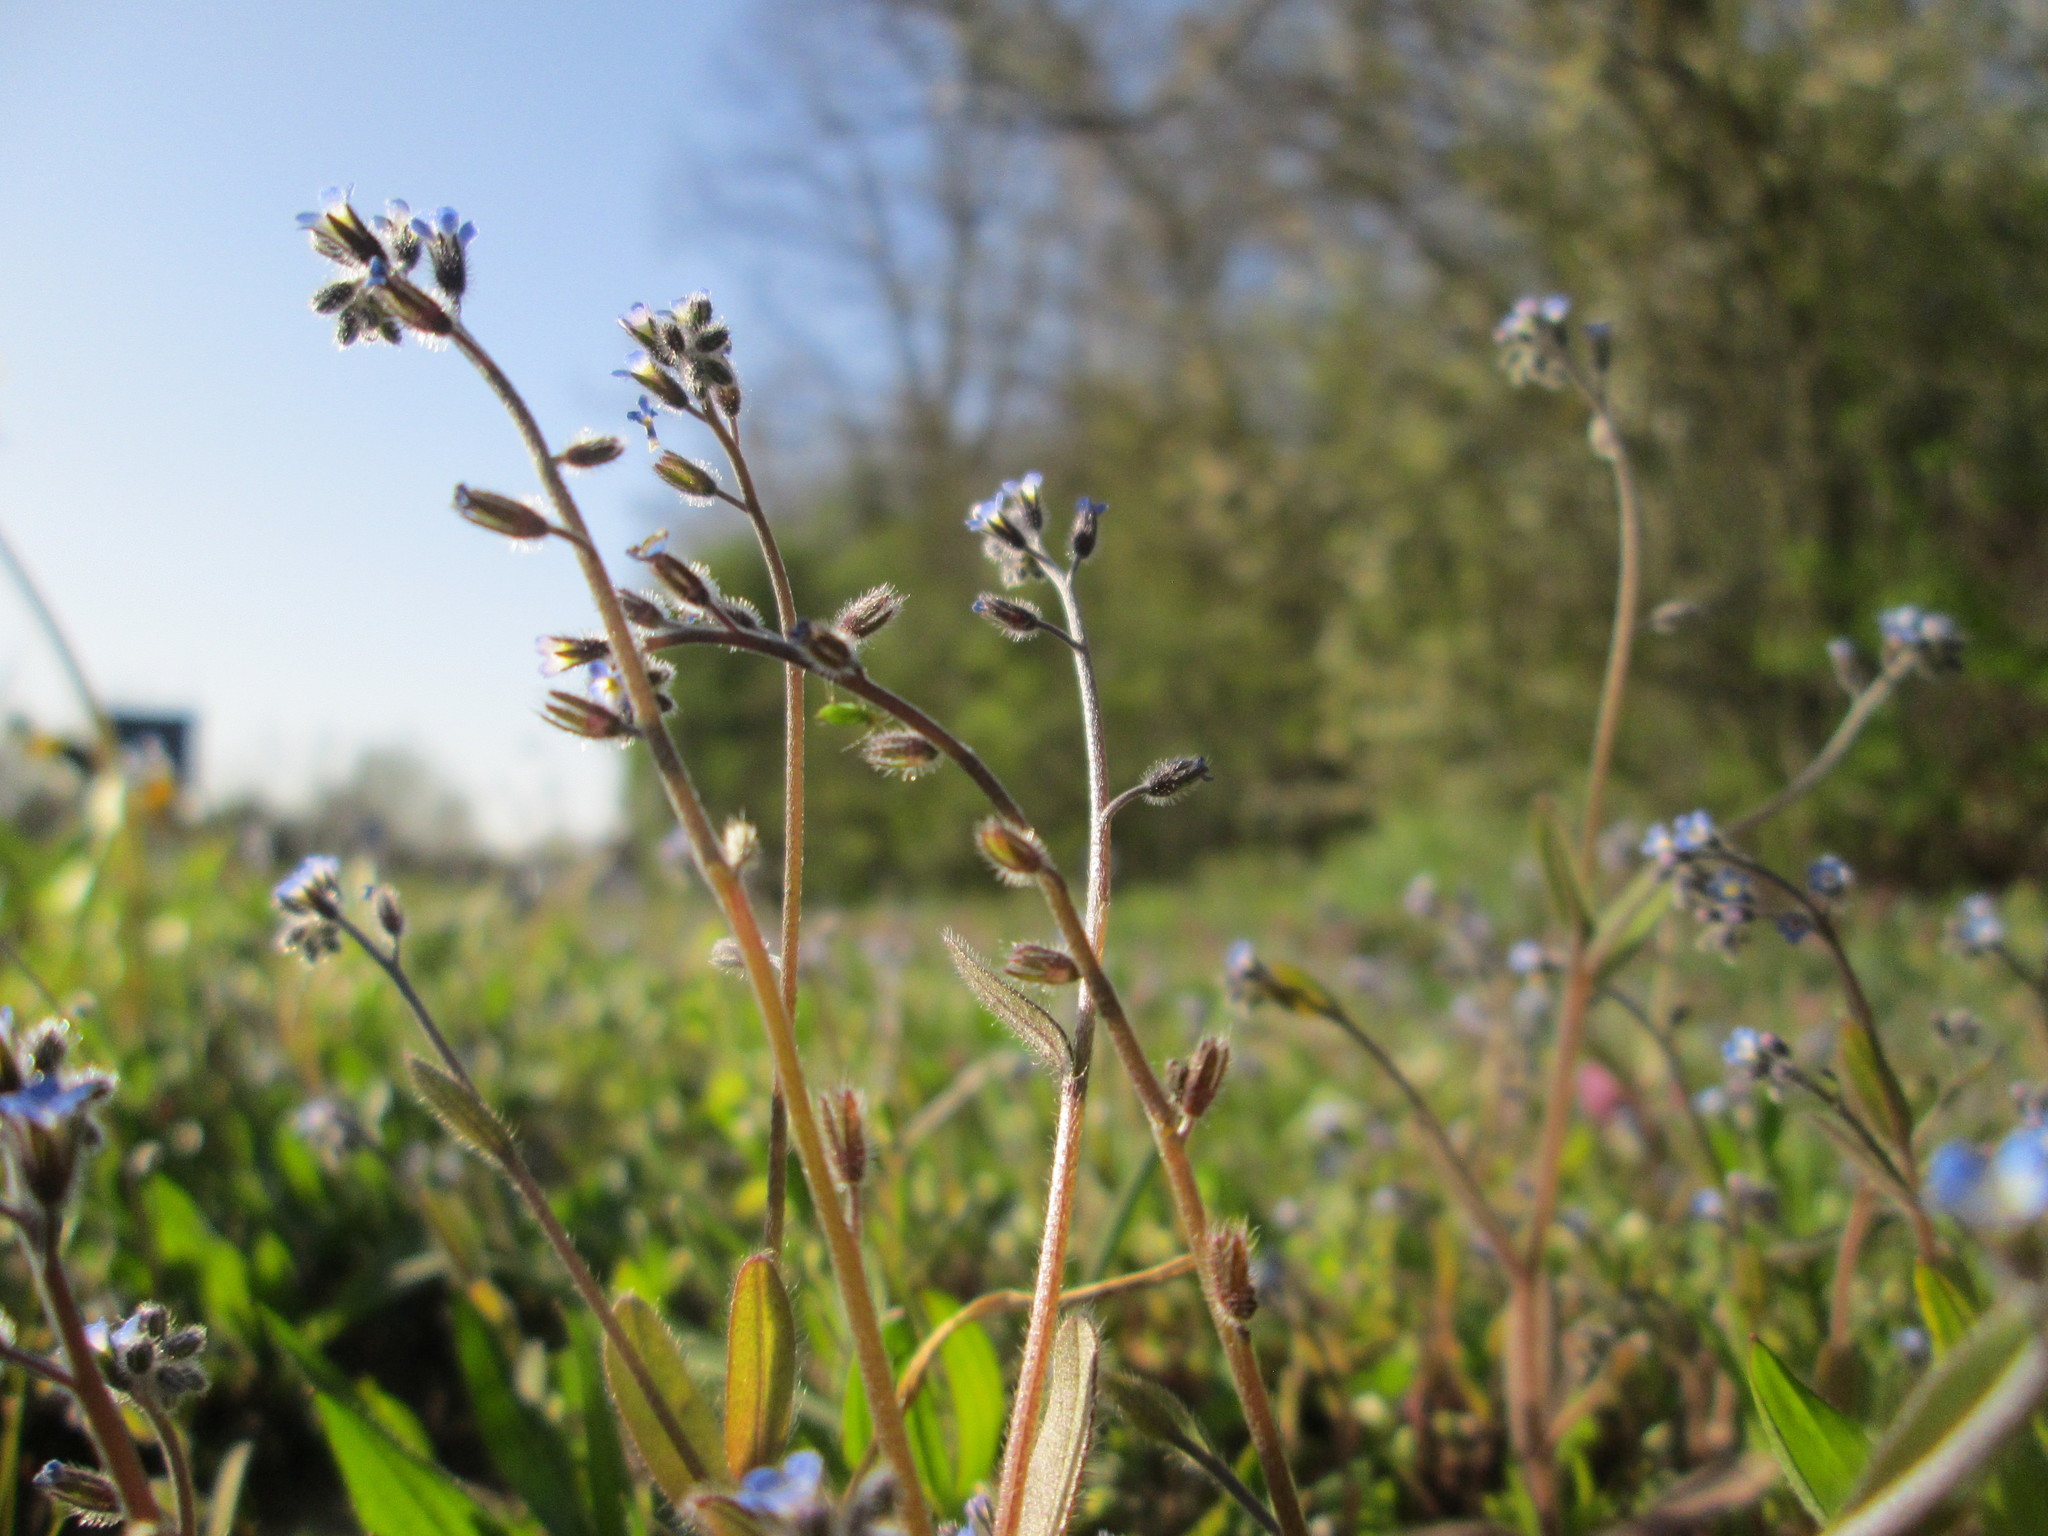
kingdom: Plantae
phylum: Tracheophyta
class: Magnoliopsida
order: Boraginales
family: Boraginaceae
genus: Myosotis
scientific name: Myosotis ramosissima
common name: Early forget-me-not
